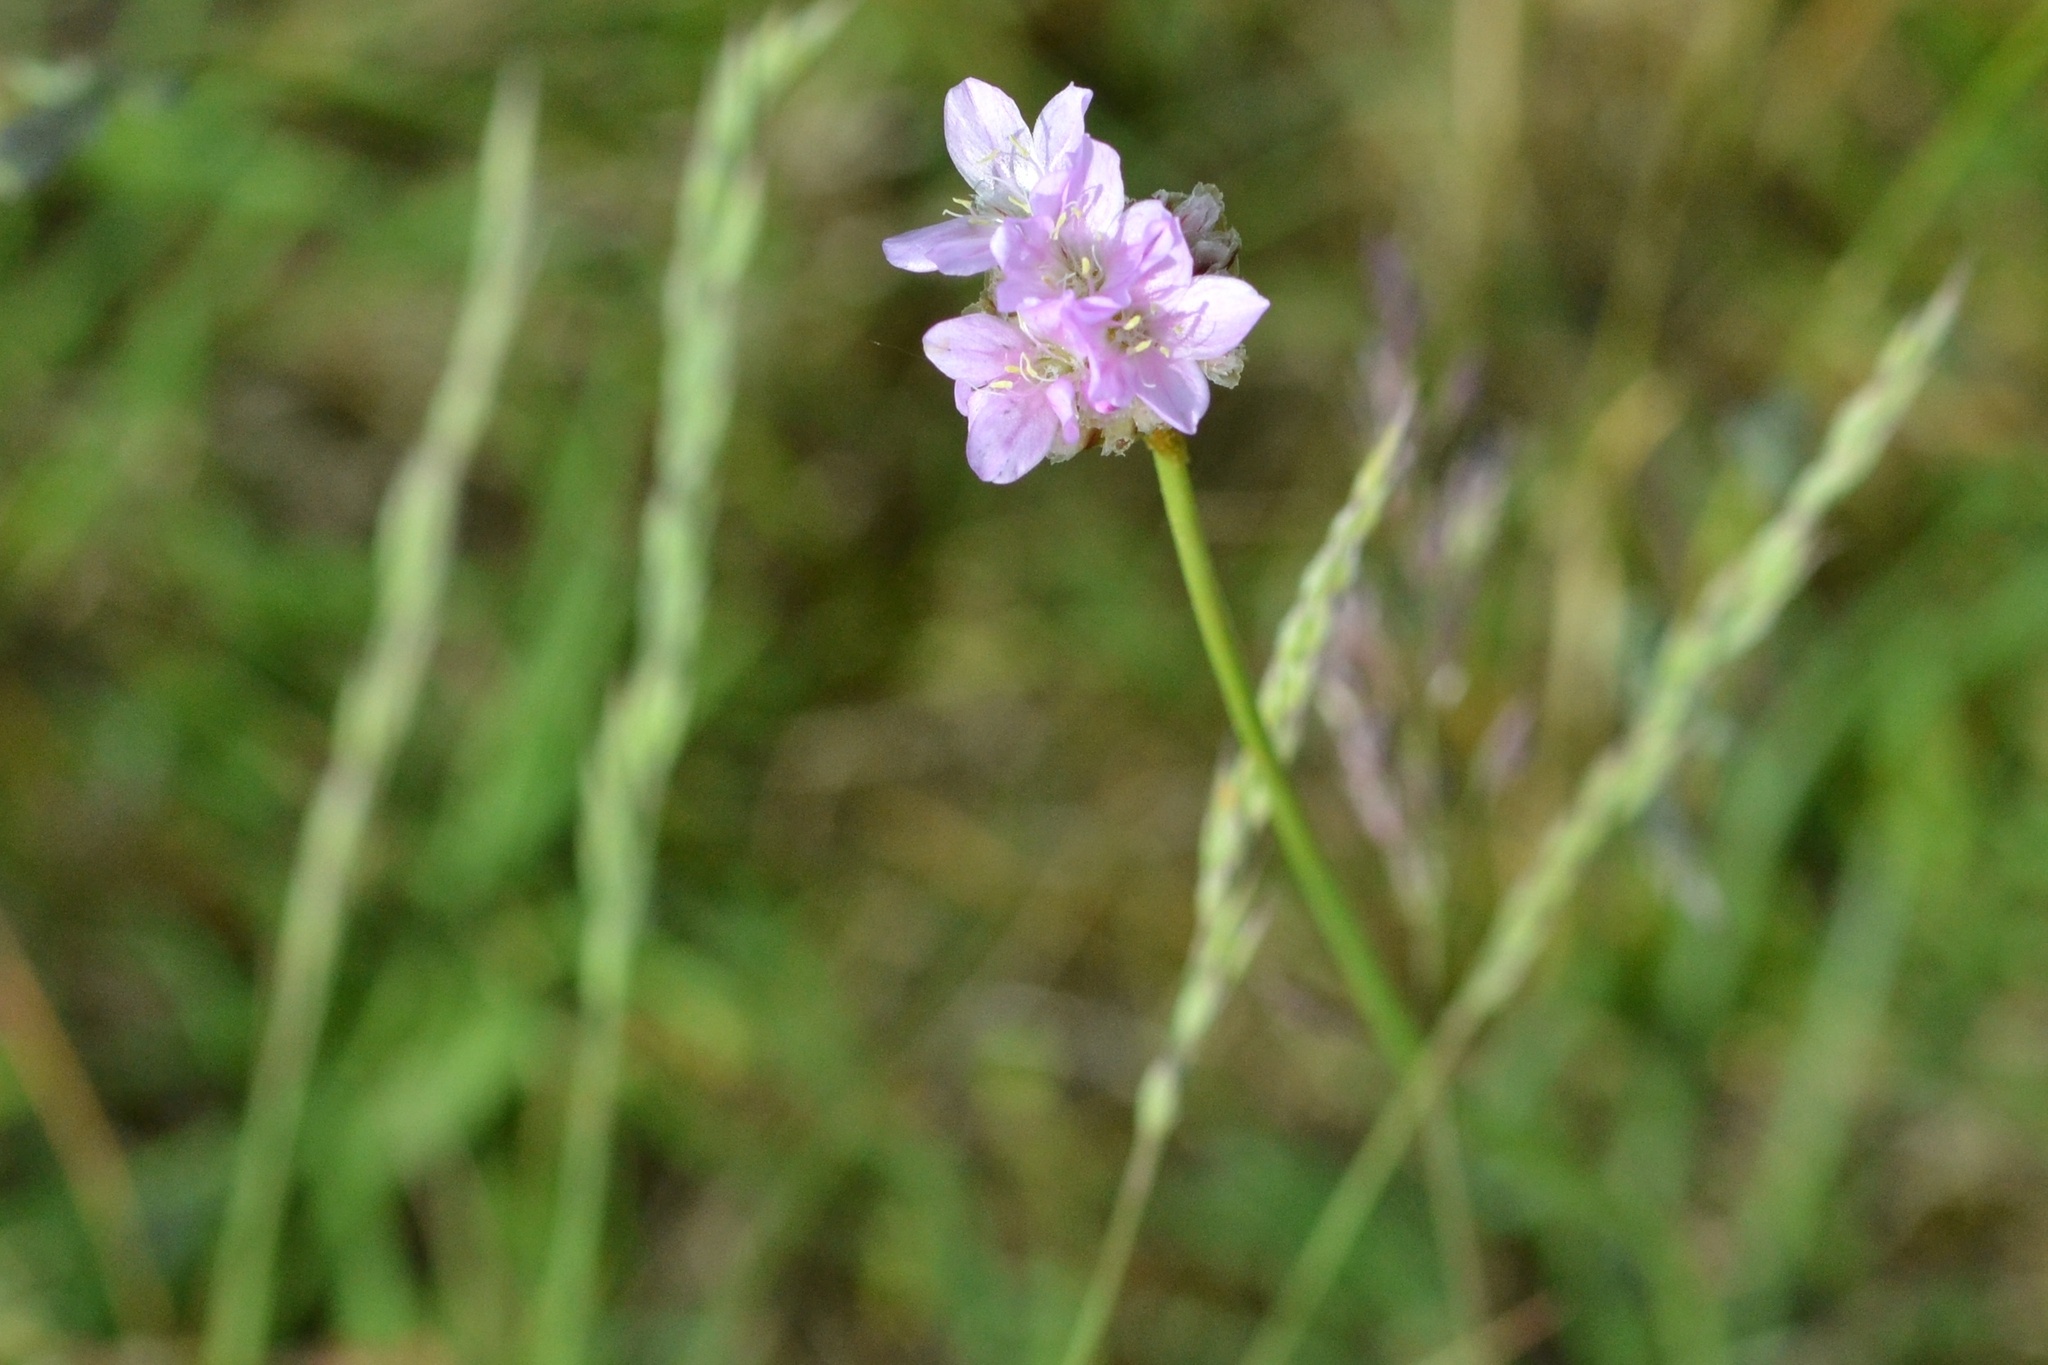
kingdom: Plantae
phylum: Tracheophyta
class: Magnoliopsida
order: Caryophyllales
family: Plumbaginaceae
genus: Armeria
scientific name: Armeria maritima
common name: Thrift
